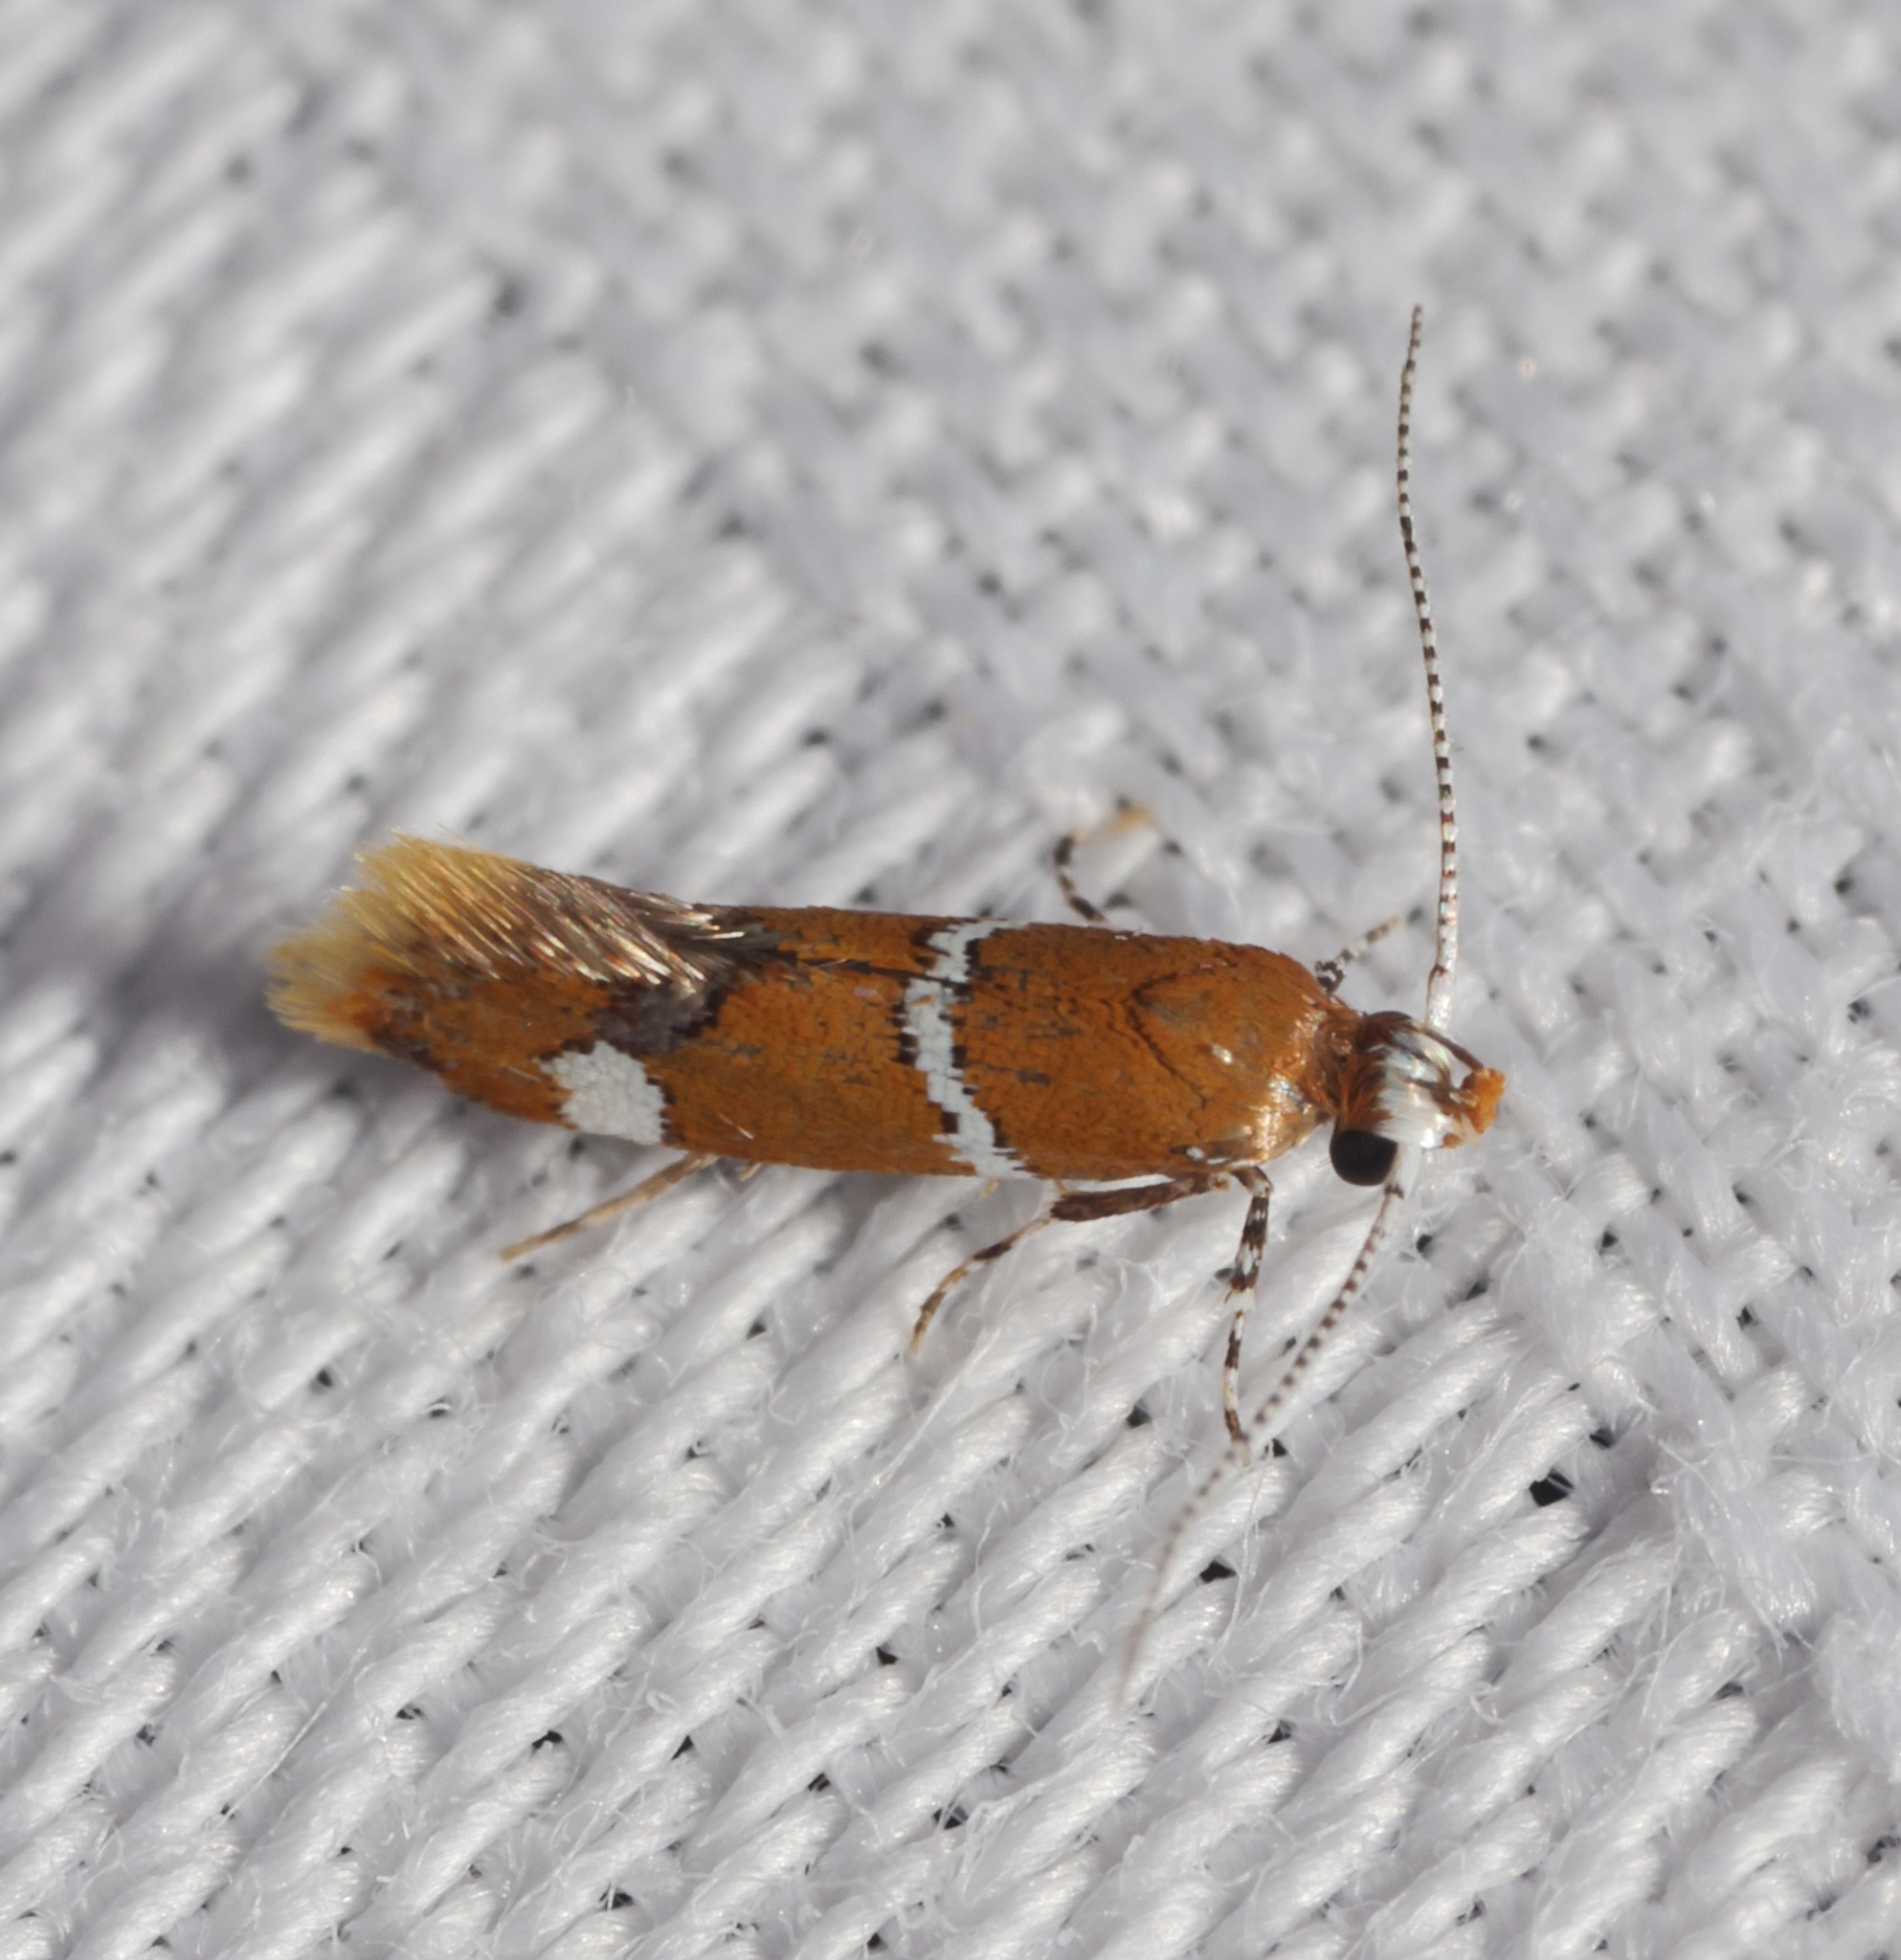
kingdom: Animalia
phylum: Arthropoda
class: Insecta
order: Lepidoptera
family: Oecophoridae
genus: Promalactis
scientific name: Promalactis albisquama
